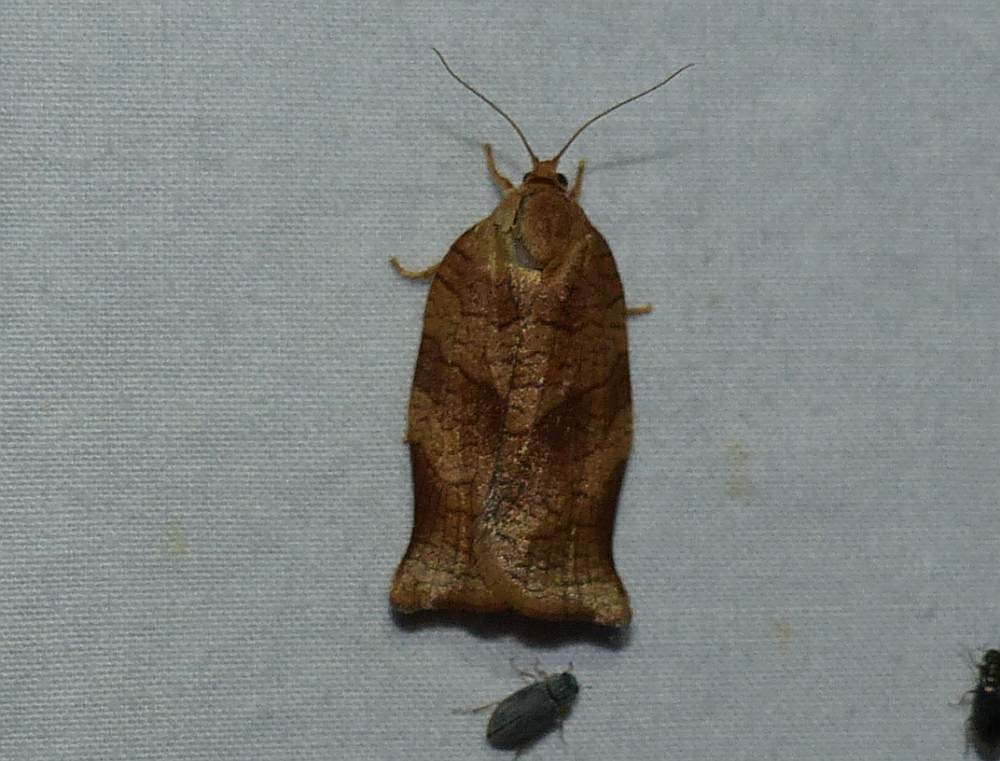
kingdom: Animalia
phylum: Arthropoda
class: Insecta
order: Lepidoptera
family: Tortricidae
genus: Choristoneura
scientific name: Choristoneura rosaceana
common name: Oblique-banded leafroller moth
